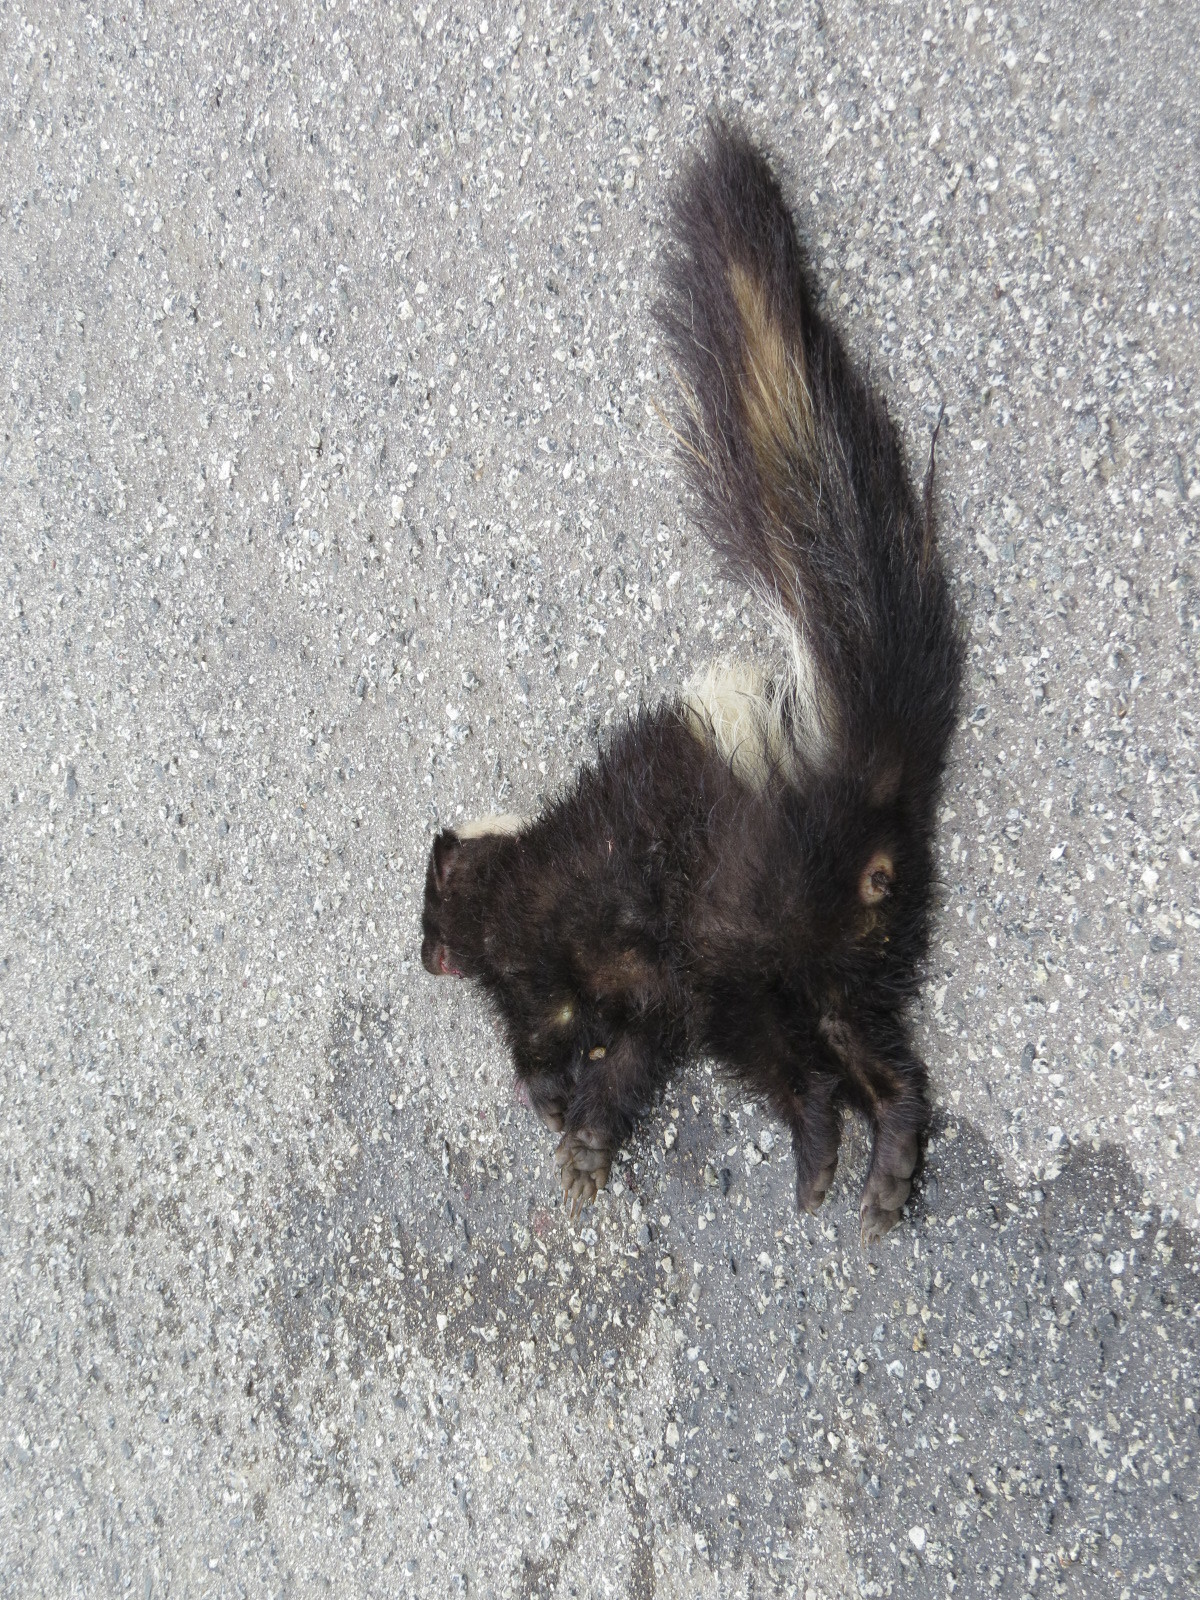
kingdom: Animalia
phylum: Chordata
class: Mammalia
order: Carnivora
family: Mephitidae
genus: Mephitis
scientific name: Mephitis mephitis
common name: Striped skunk
